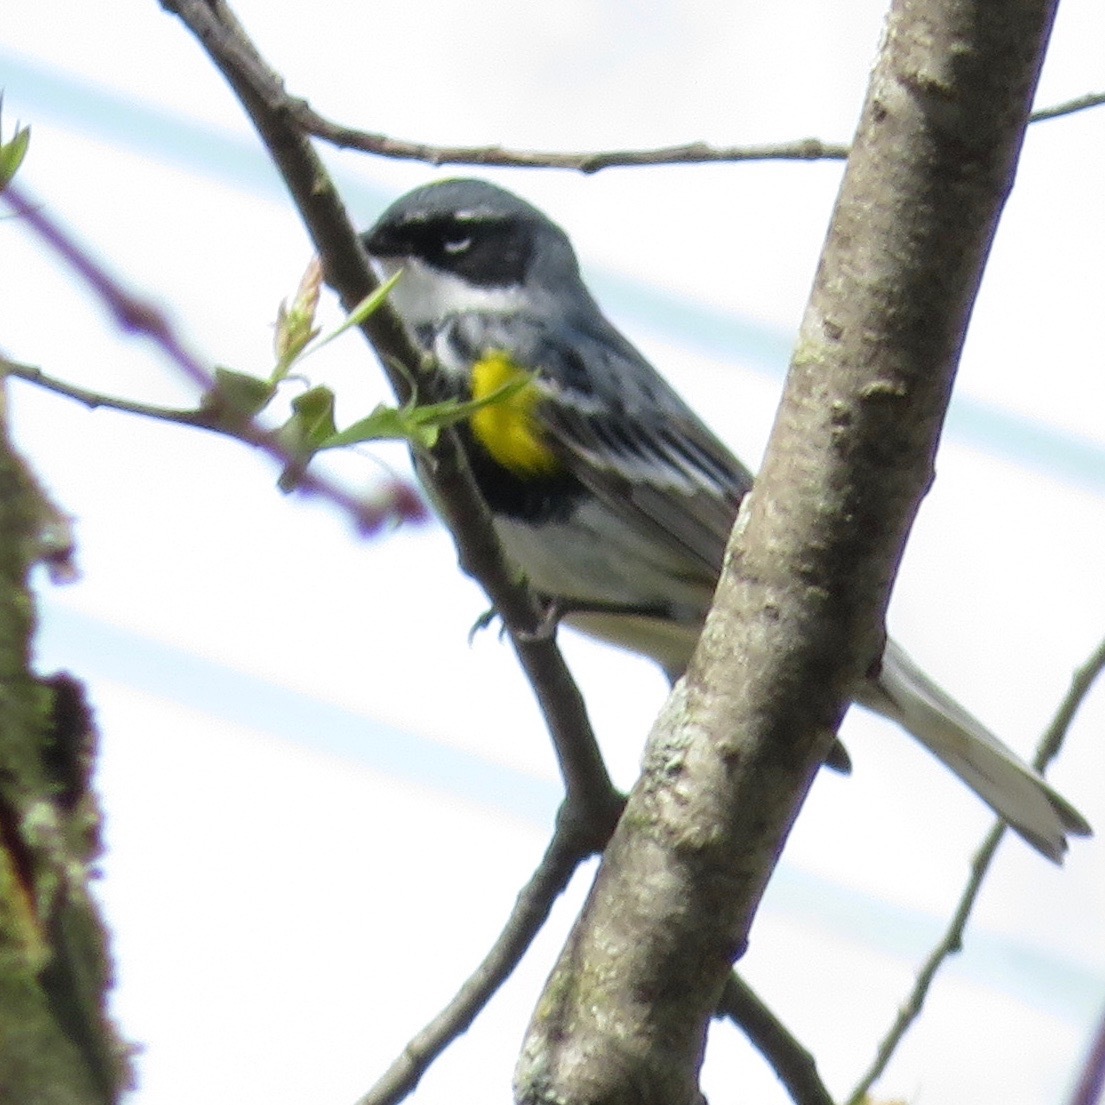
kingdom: Animalia
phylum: Chordata
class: Aves
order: Passeriformes
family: Parulidae
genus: Setophaga
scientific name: Setophaga coronata
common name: Myrtle warbler
